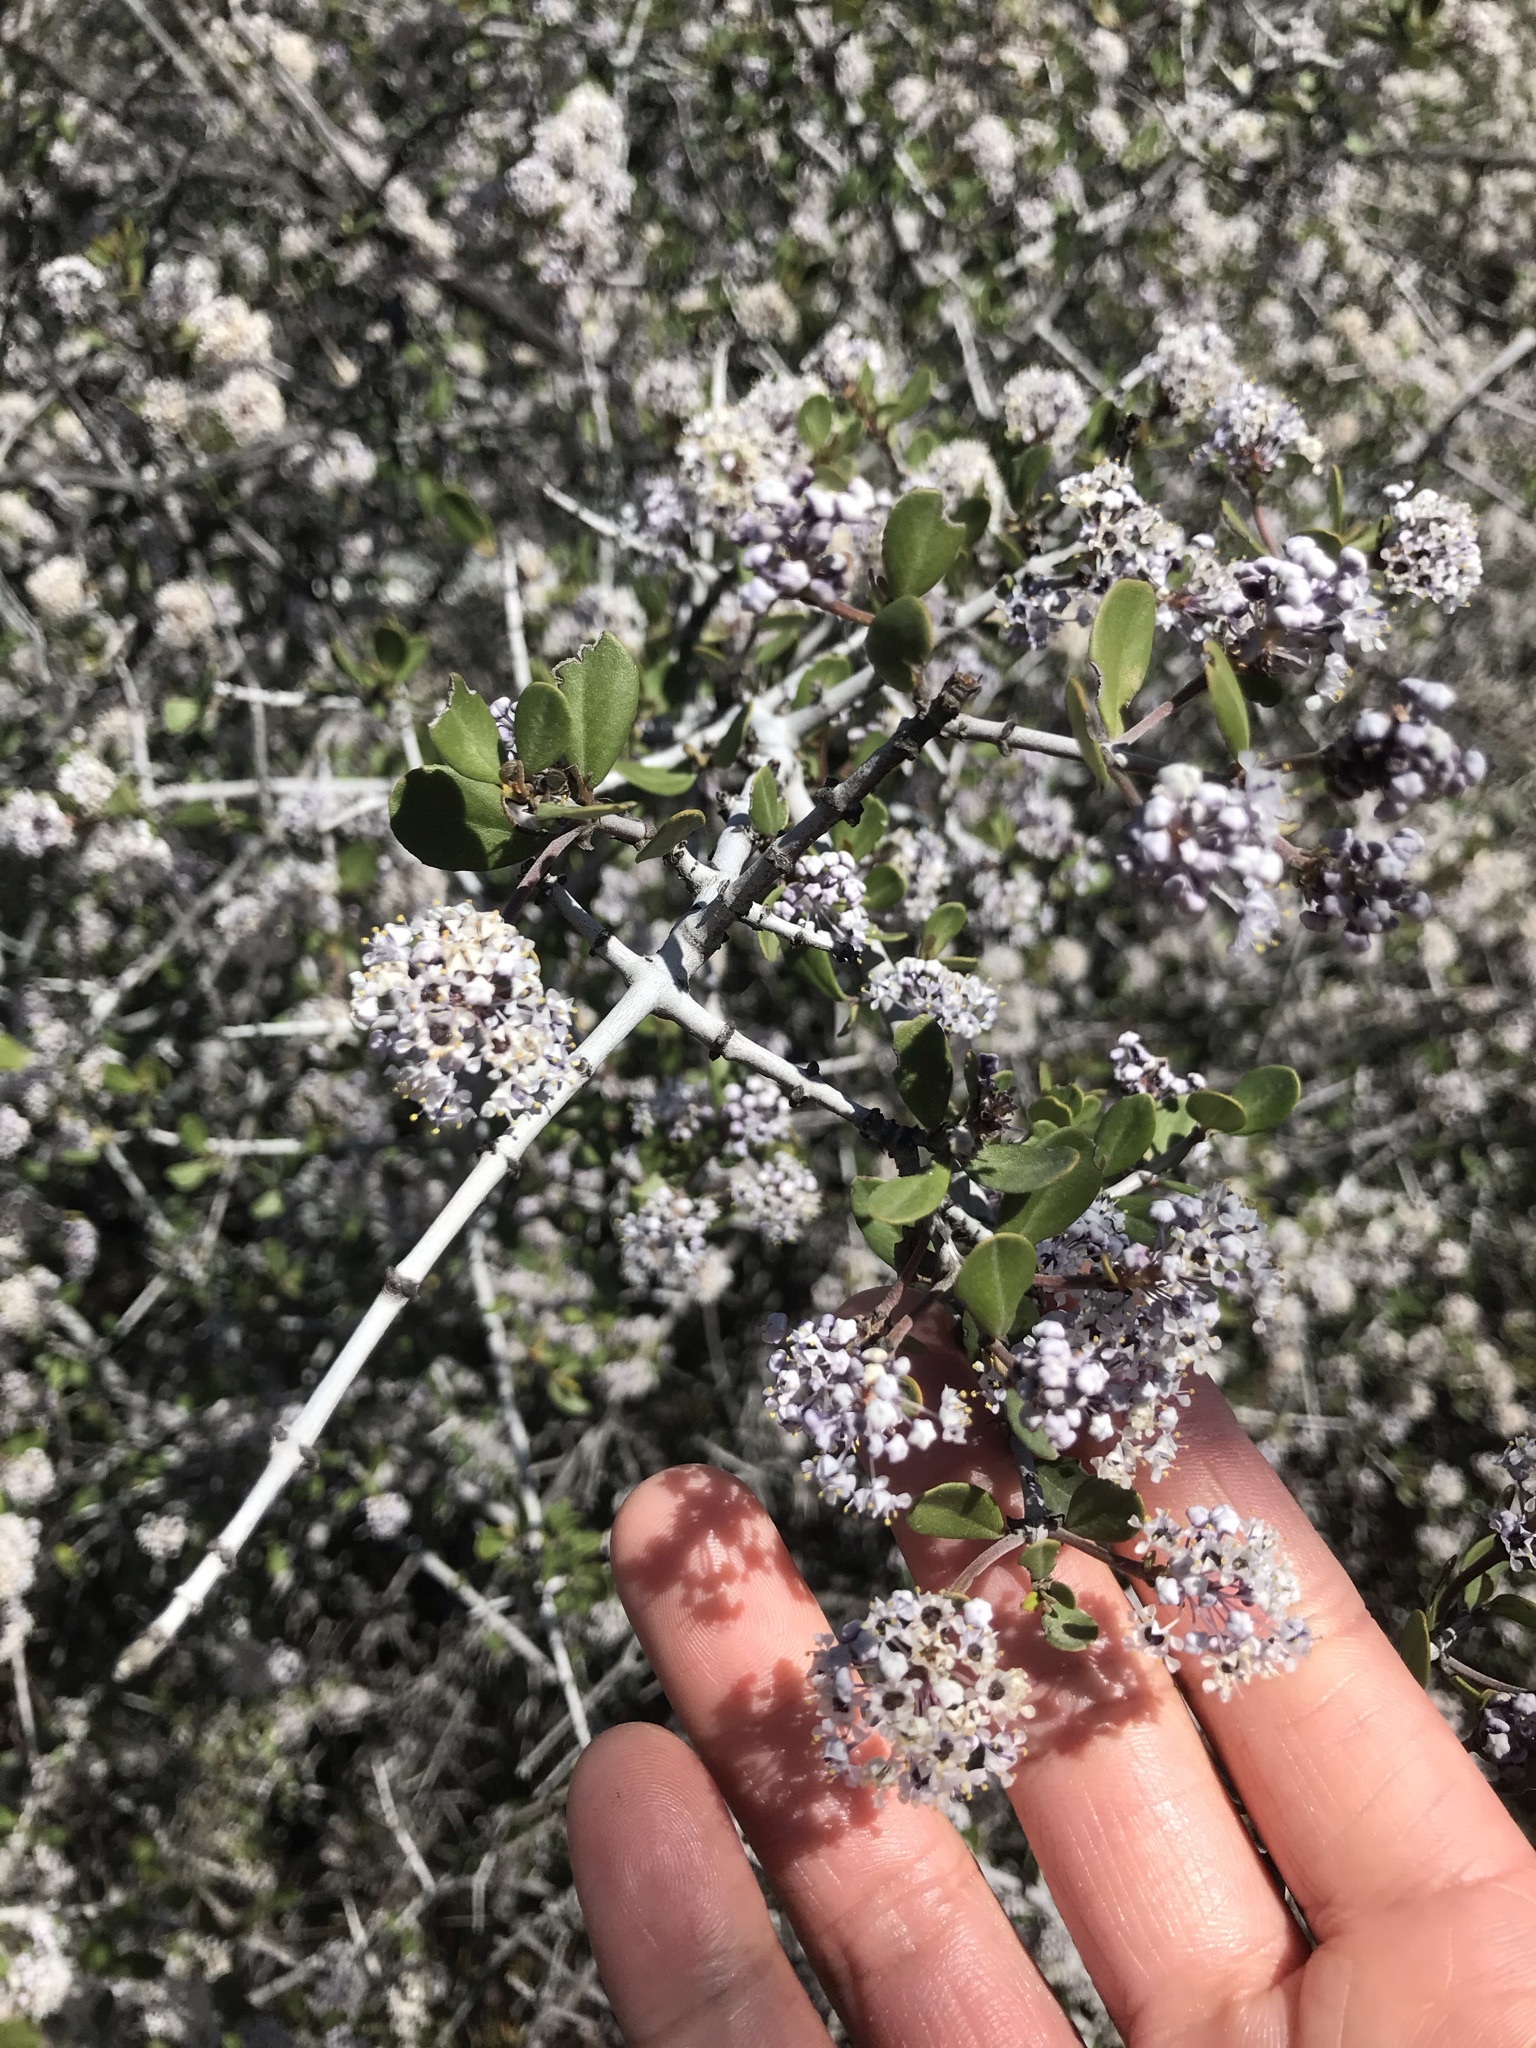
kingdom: Plantae
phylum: Tracheophyta
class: Magnoliopsida
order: Rosales
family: Rhamnaceae
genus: Ceanothus
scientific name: Ceanothus cuneatus
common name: Cuneate ceanothus
